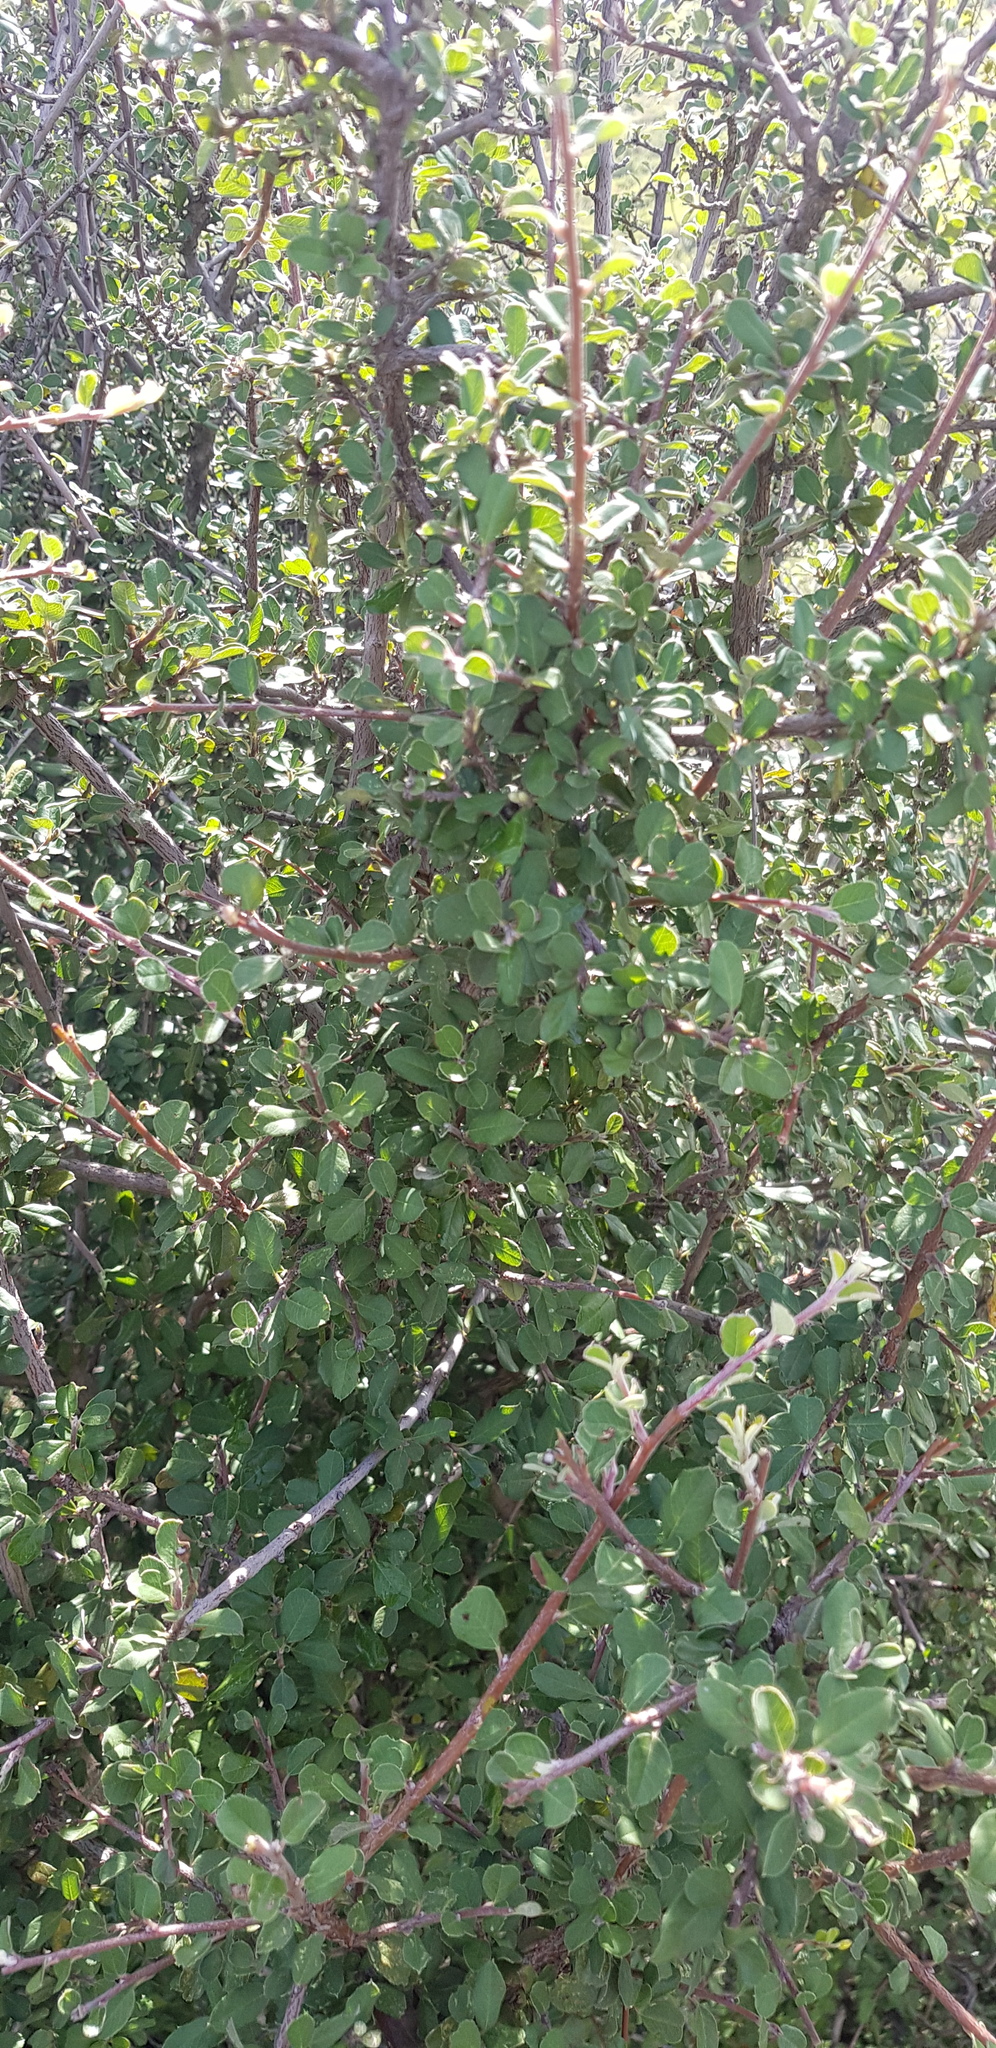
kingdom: Plantae
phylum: Tracheophyta
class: Magnoliopsida
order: Rosales
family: Rosaceae
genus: Malacomeles
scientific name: Malacomeles denticulata
